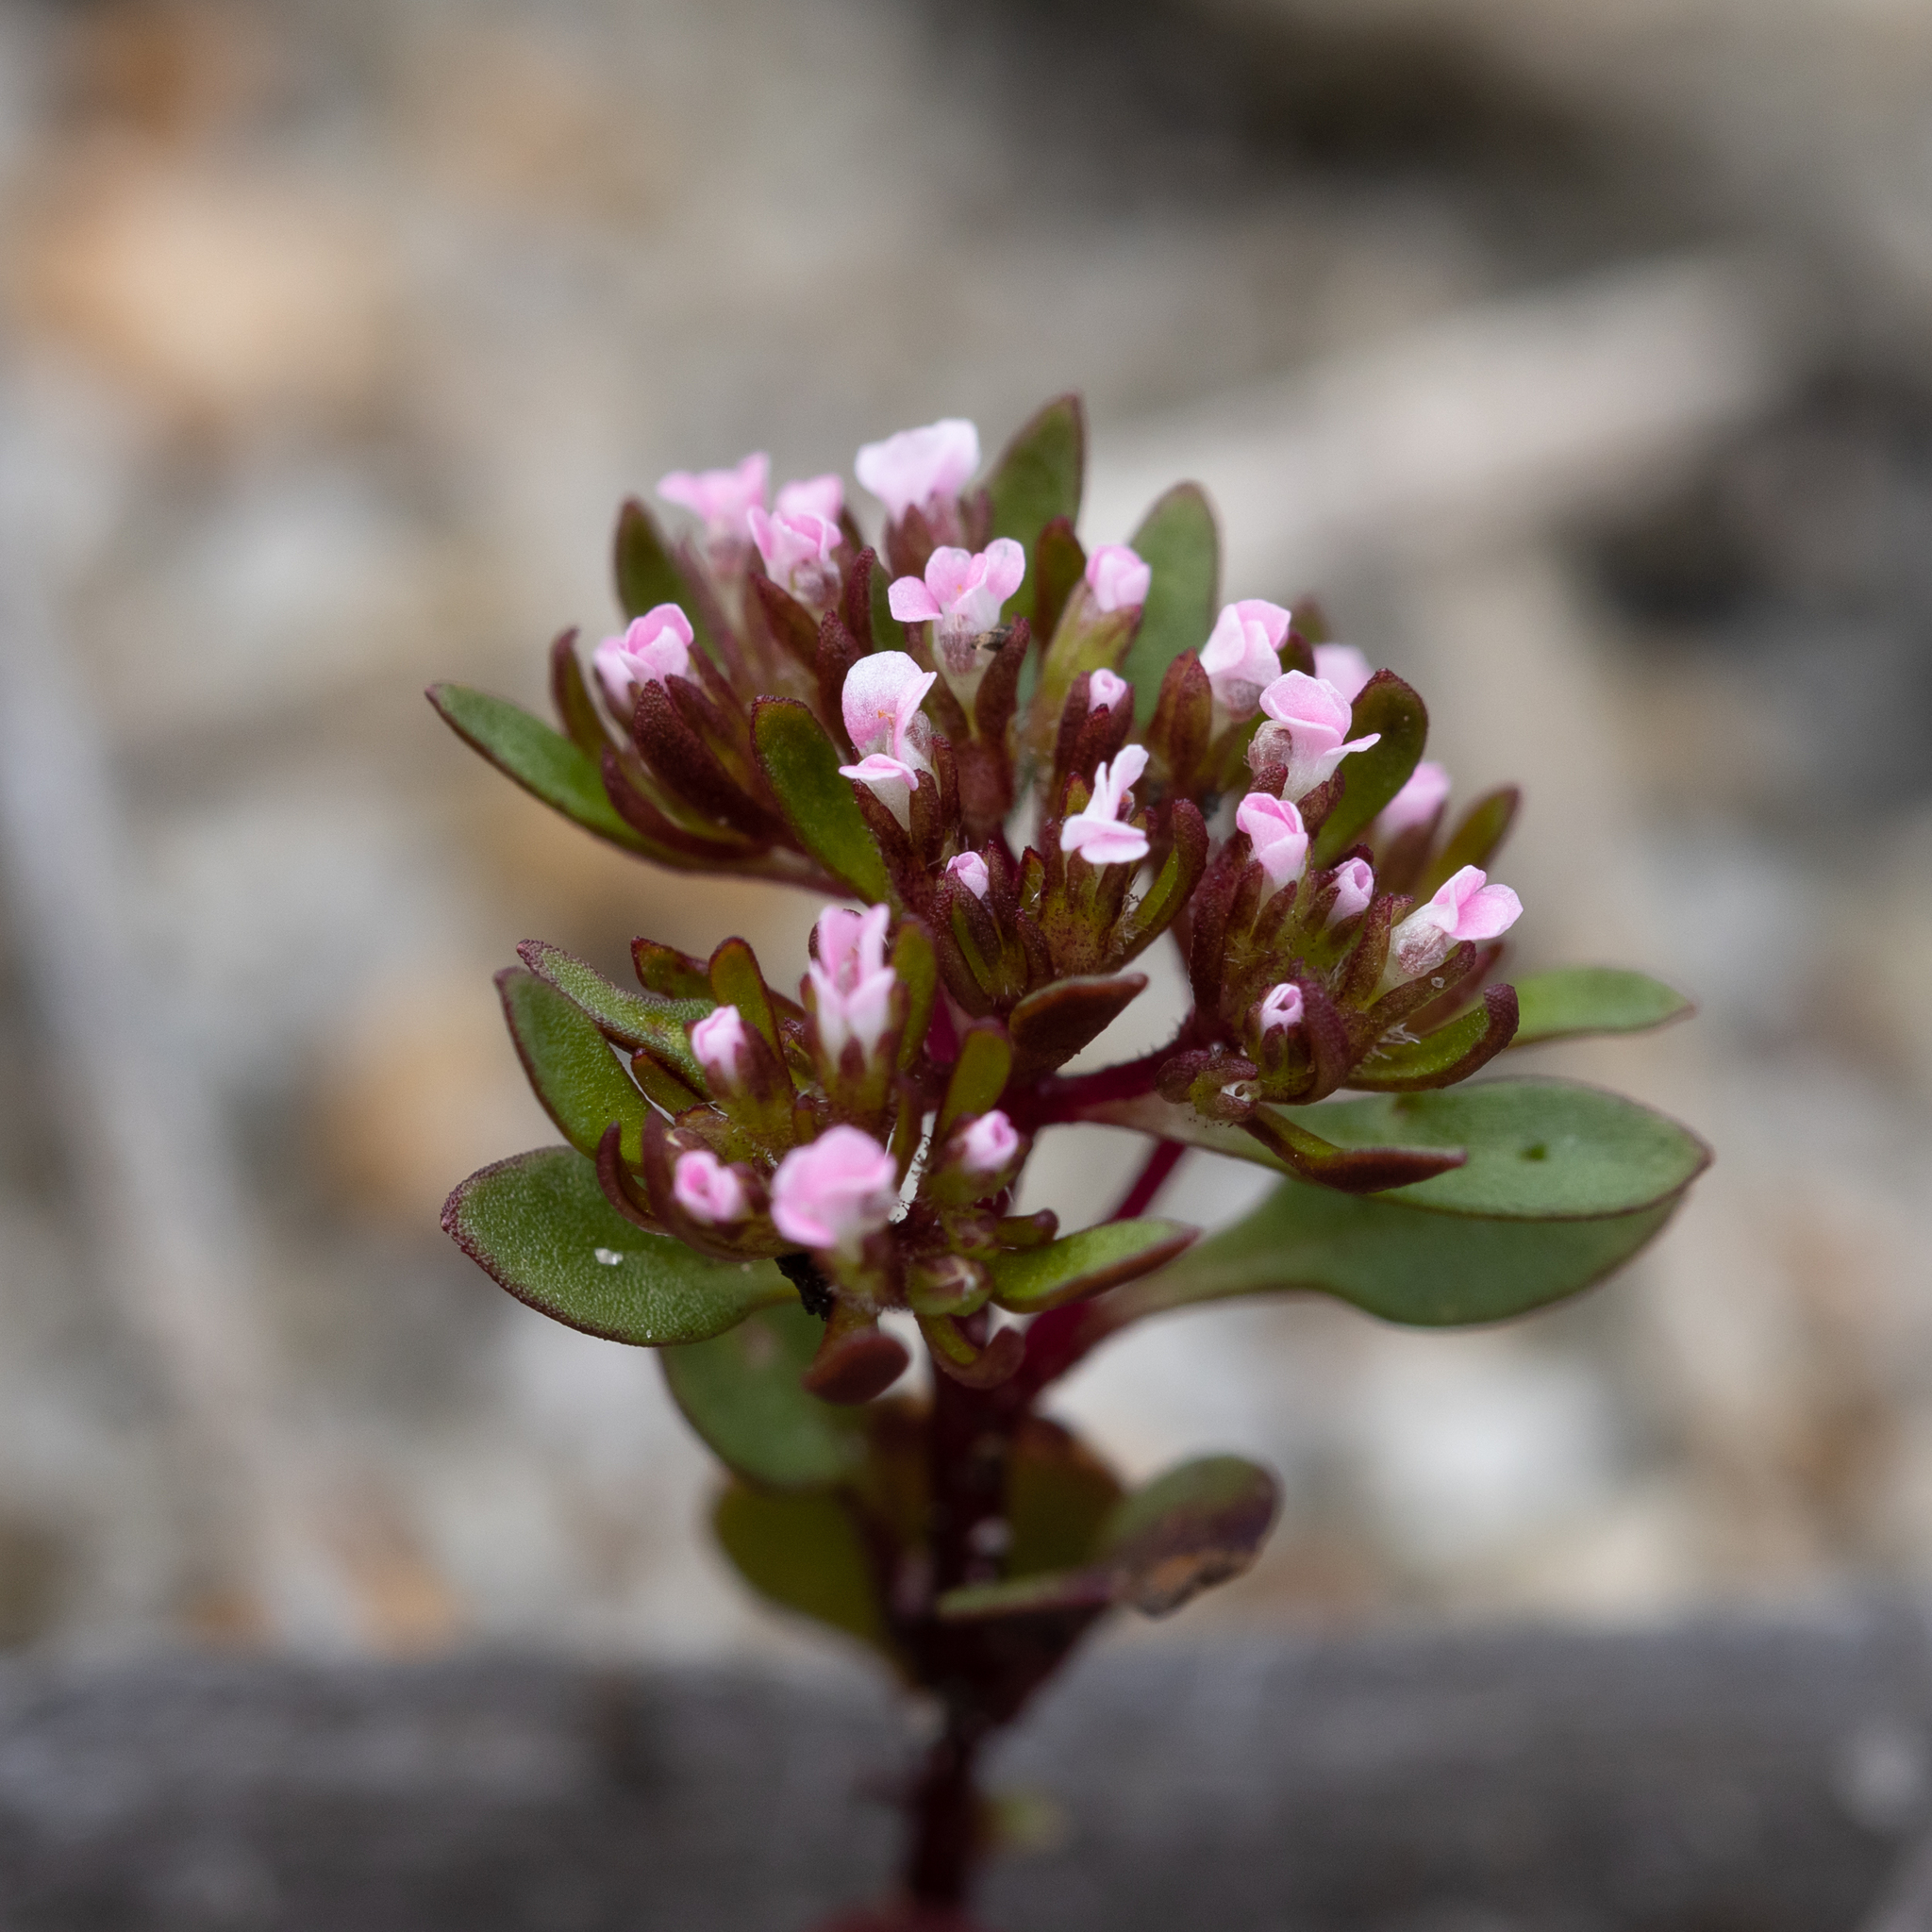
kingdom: Plantae
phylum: Tracheophyta
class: Magnoliopsida
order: Asterales
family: Stylidiaceae
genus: Levenhookia
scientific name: Levenhookia pusilla
